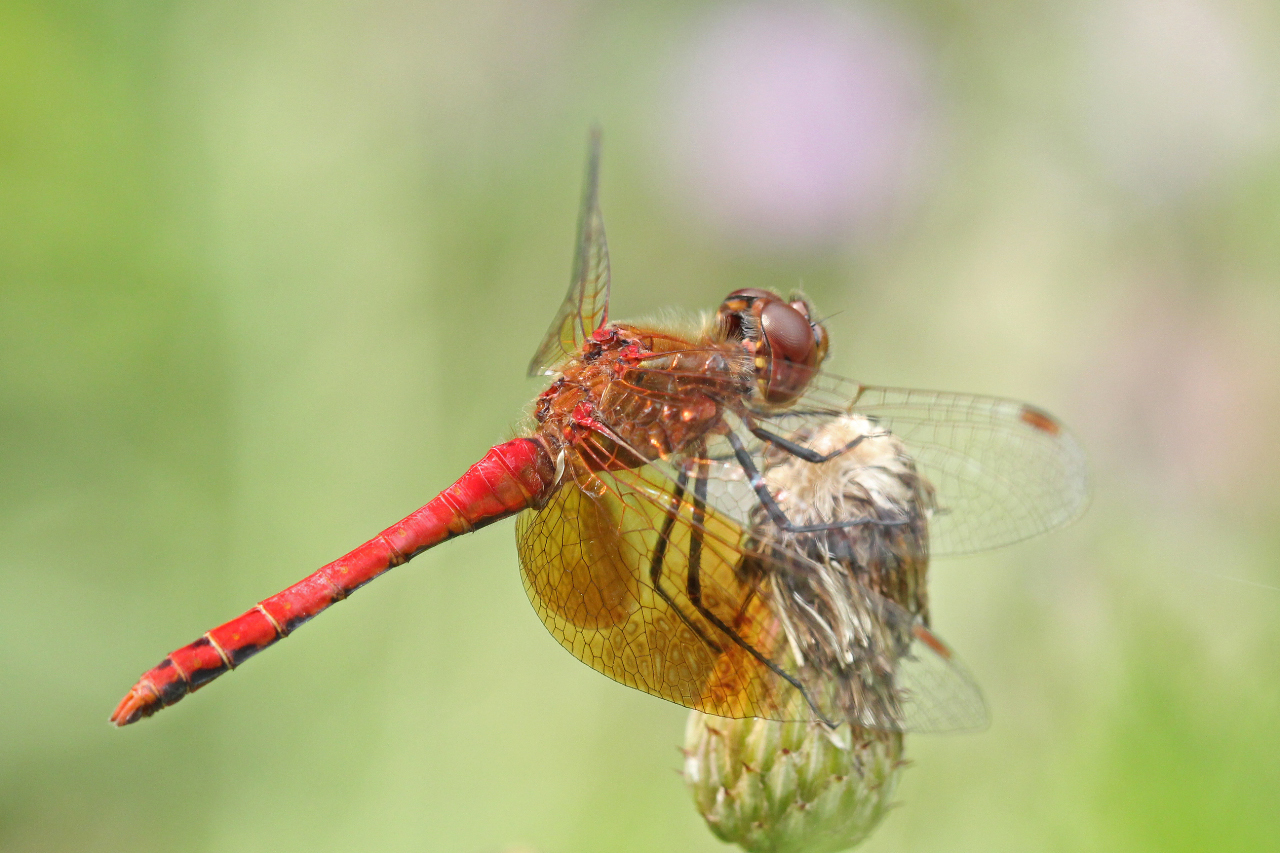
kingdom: Animalia
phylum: Arthropoda
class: Insecta
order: Odonata
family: Libellulidae
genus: Sympetrum
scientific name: Sympetrum semicinctum
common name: Band-winged meadowhawk
